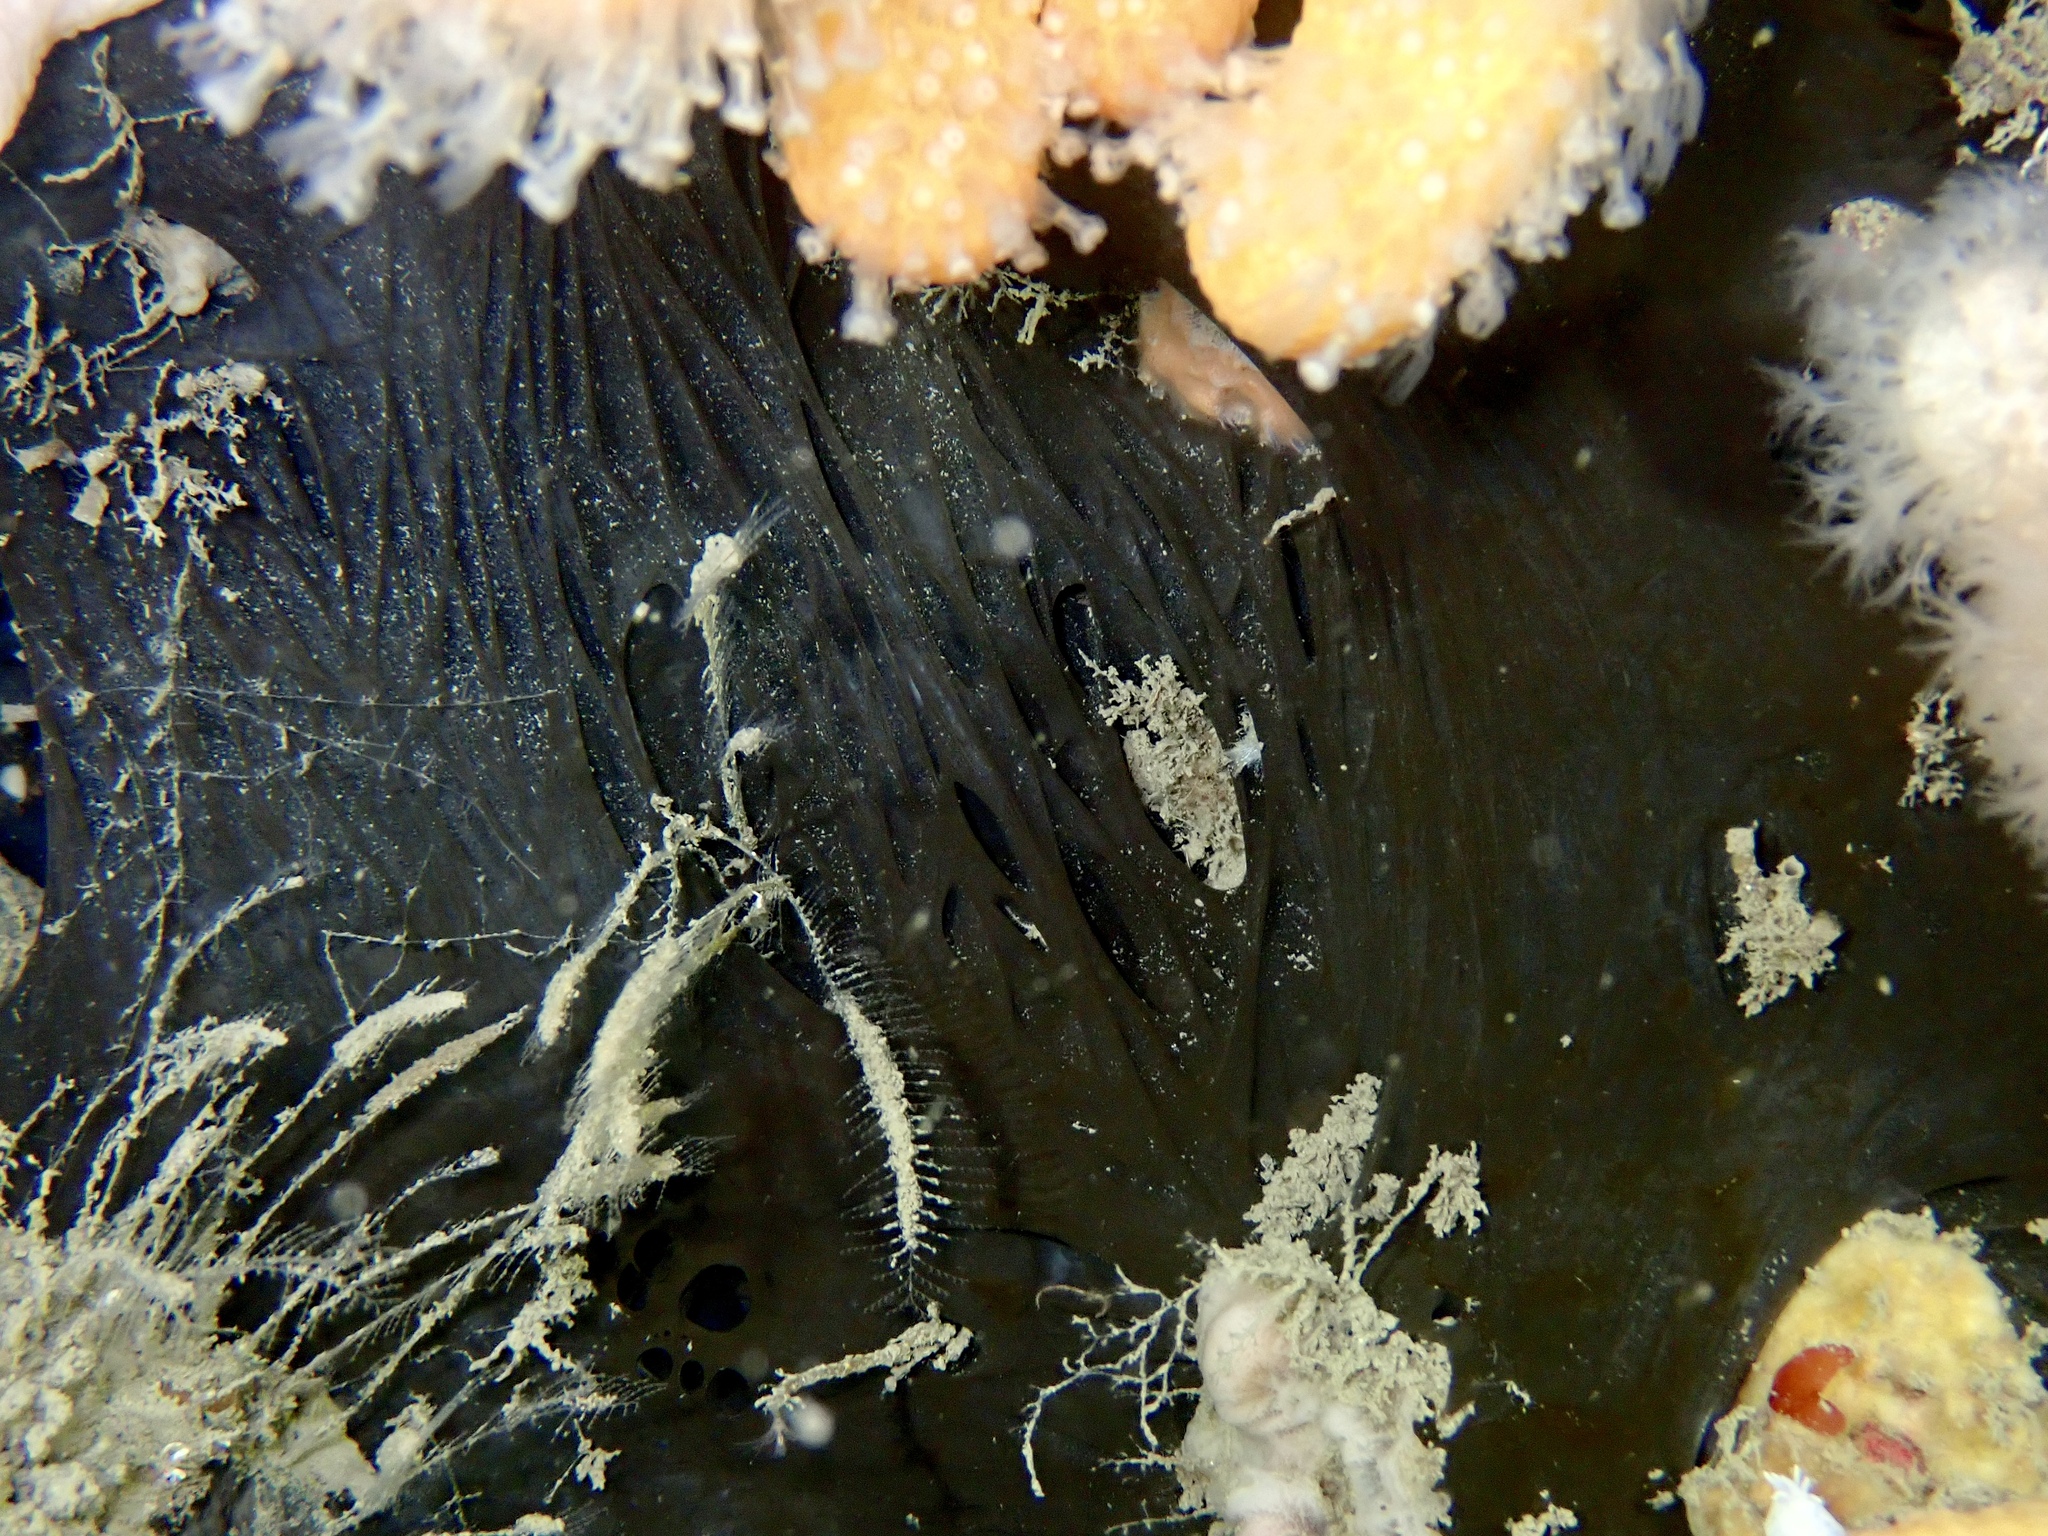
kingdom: Animalia
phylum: Porifera
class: Demospongiae
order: Tetractinellida
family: Ancorinidae
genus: Dercitus
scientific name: Dercitus bucklandi
